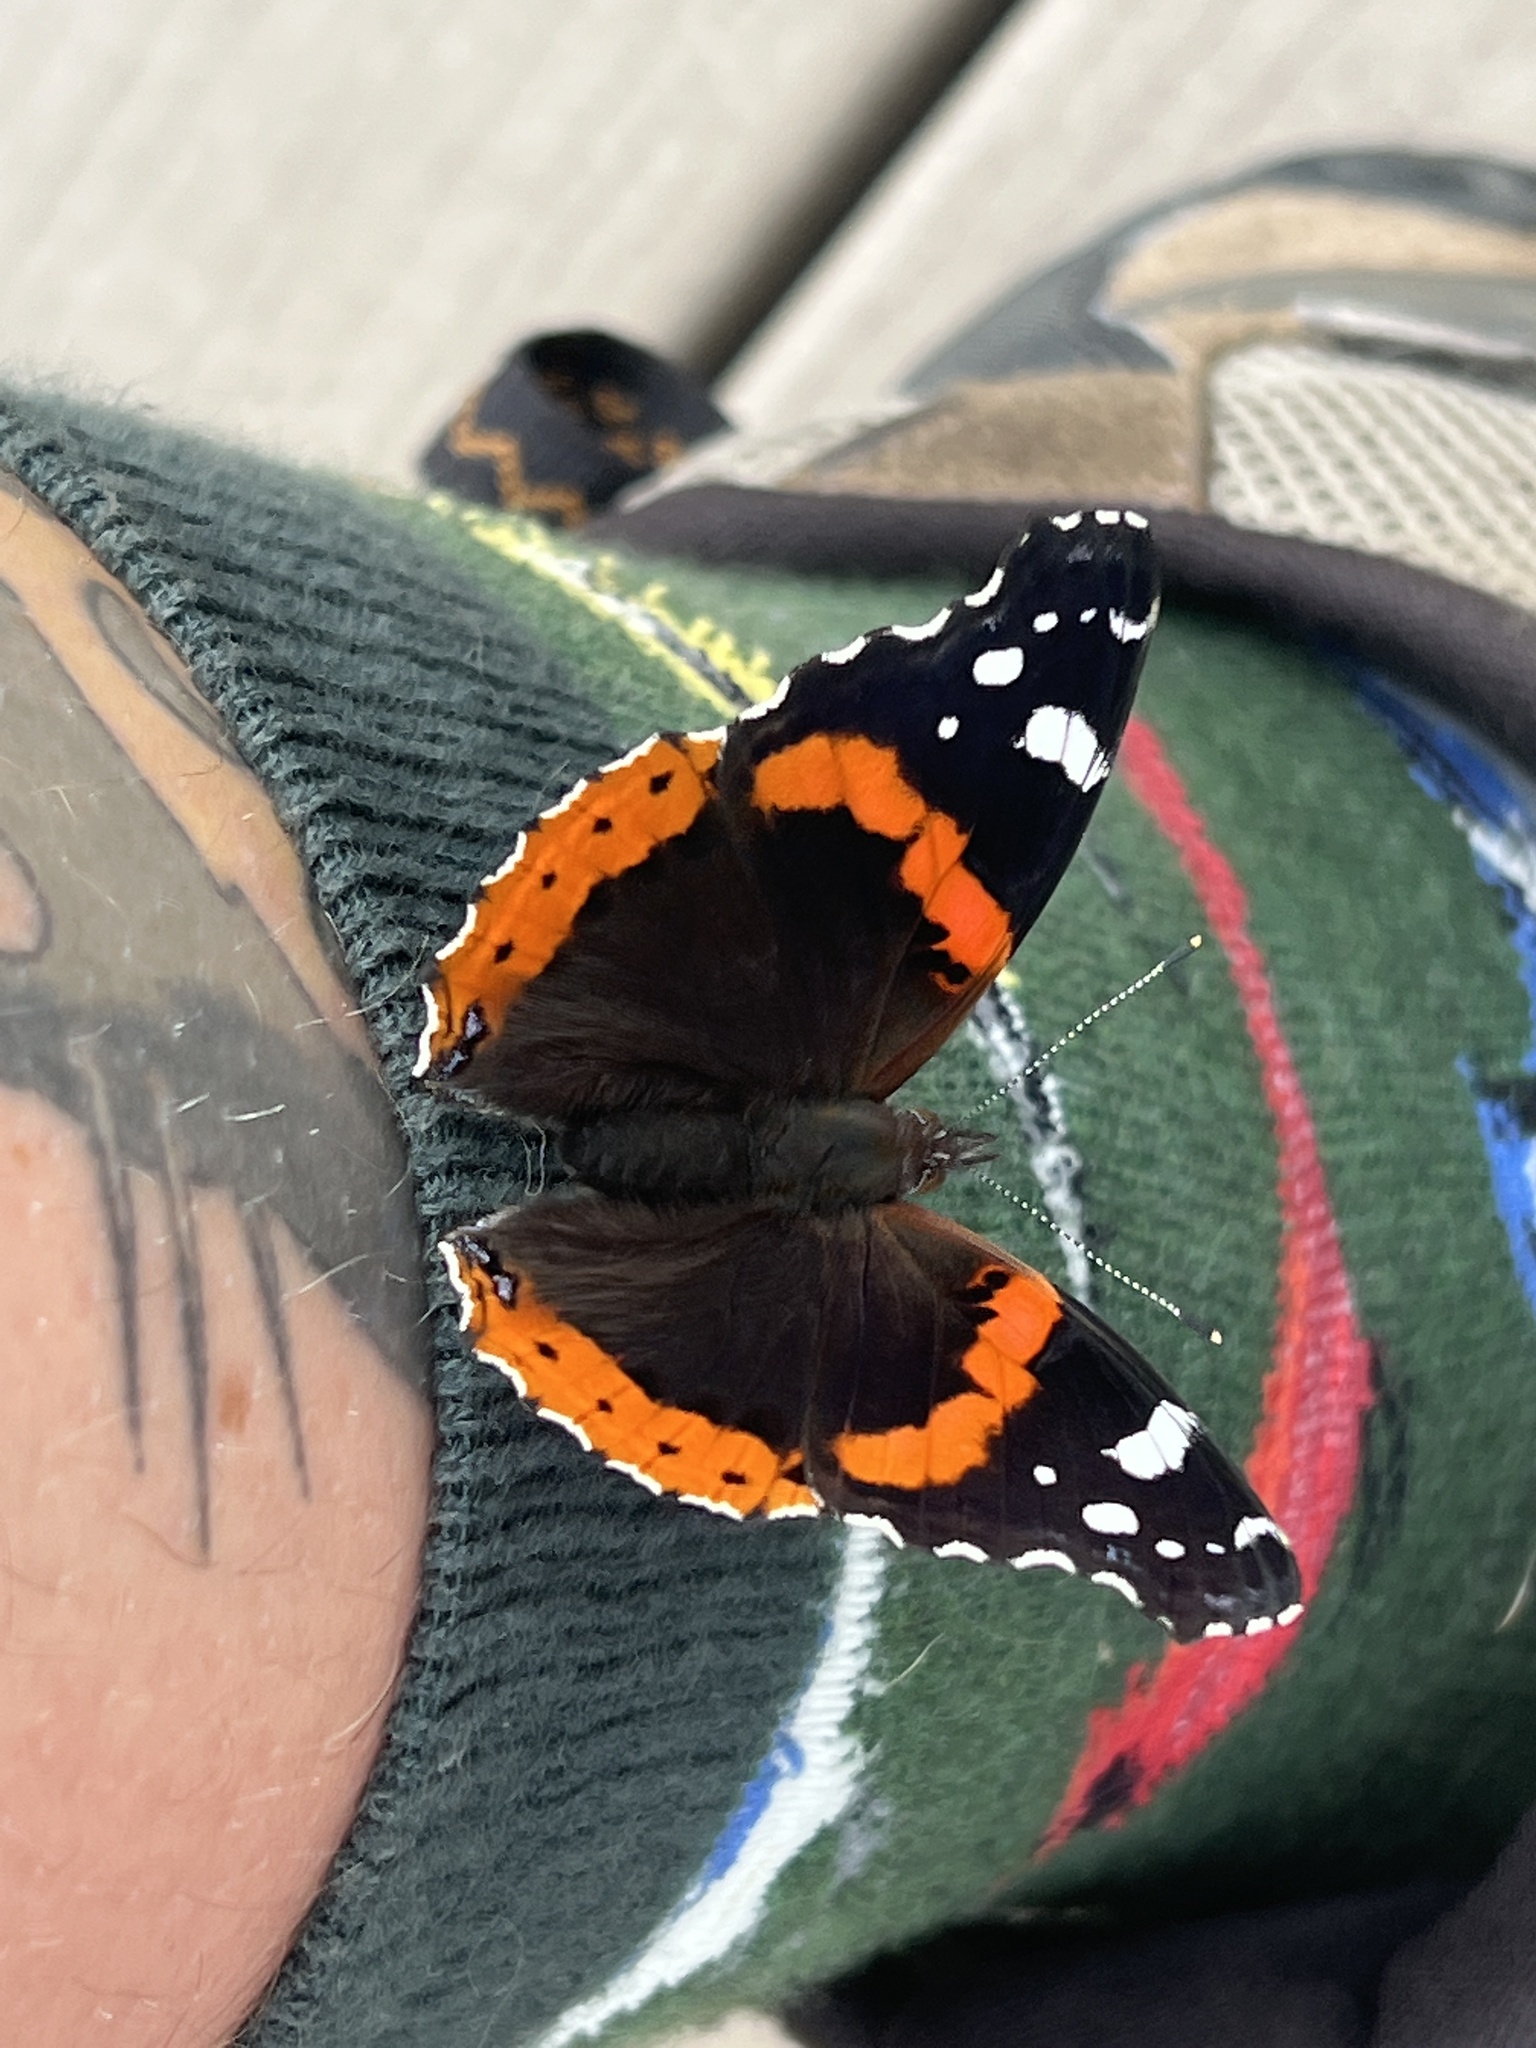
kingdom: Animalia
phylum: Arthropoda
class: Insecta
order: Lepidoptera
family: Nymphalidae
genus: Vanessa
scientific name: Vanessa atalanta
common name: Red admiral
